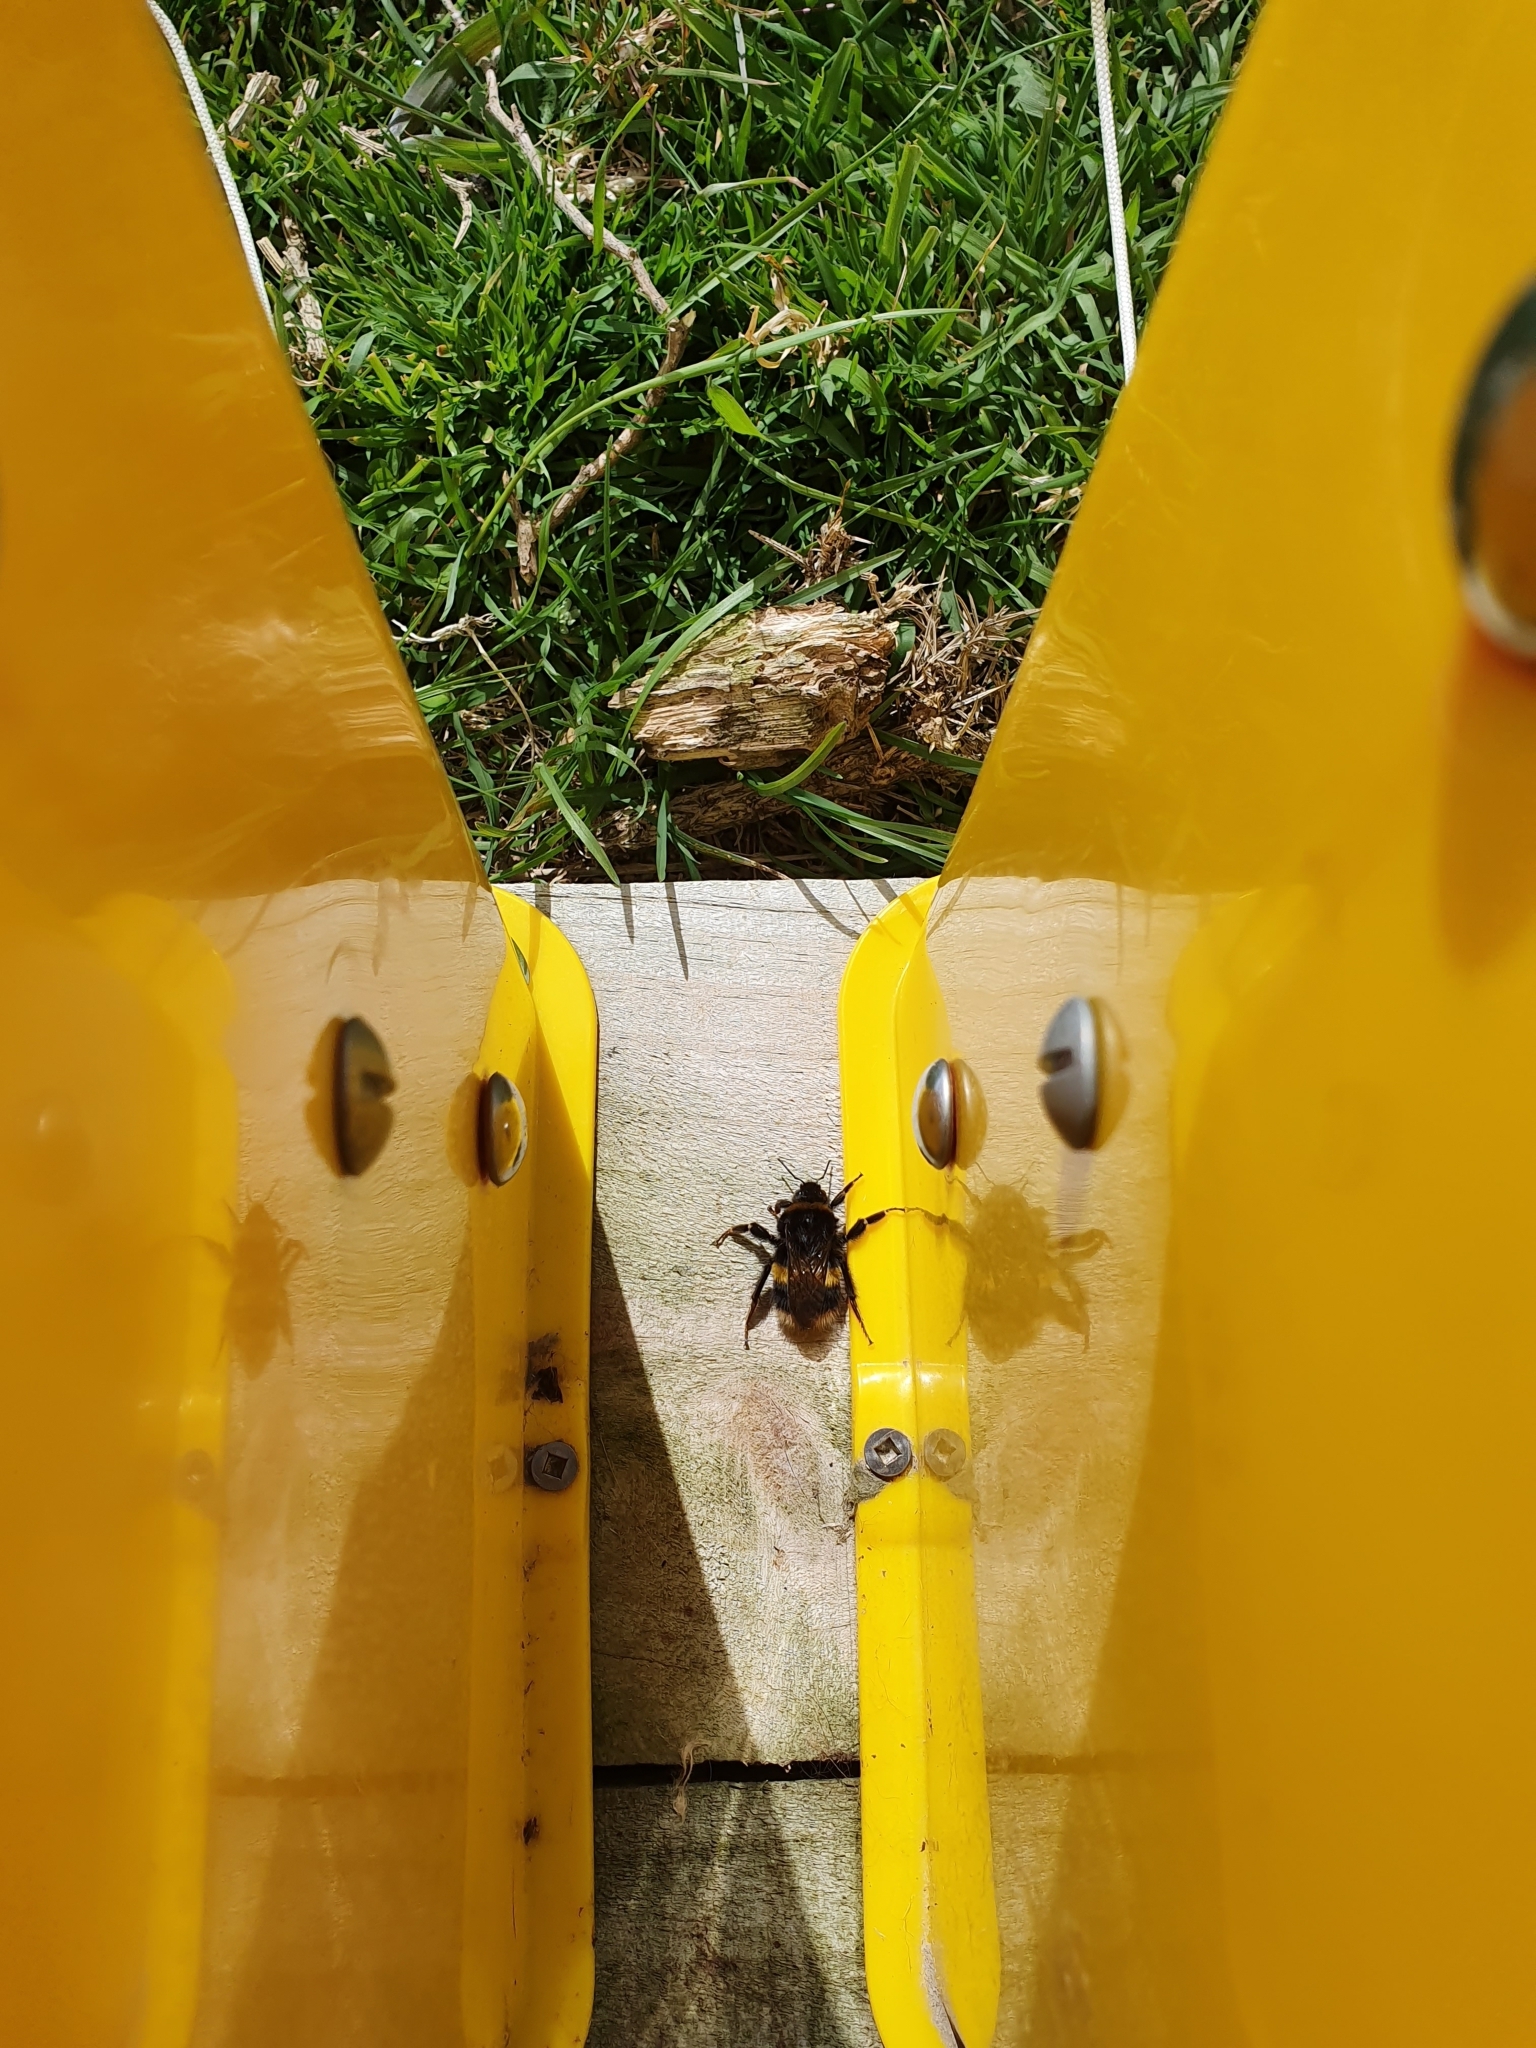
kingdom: Animalia
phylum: Arthropoda
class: Insecta
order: Hymenoptera
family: Apidae
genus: Bombus
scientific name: Bombus terrestris
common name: Buff-tailed bumblebee
